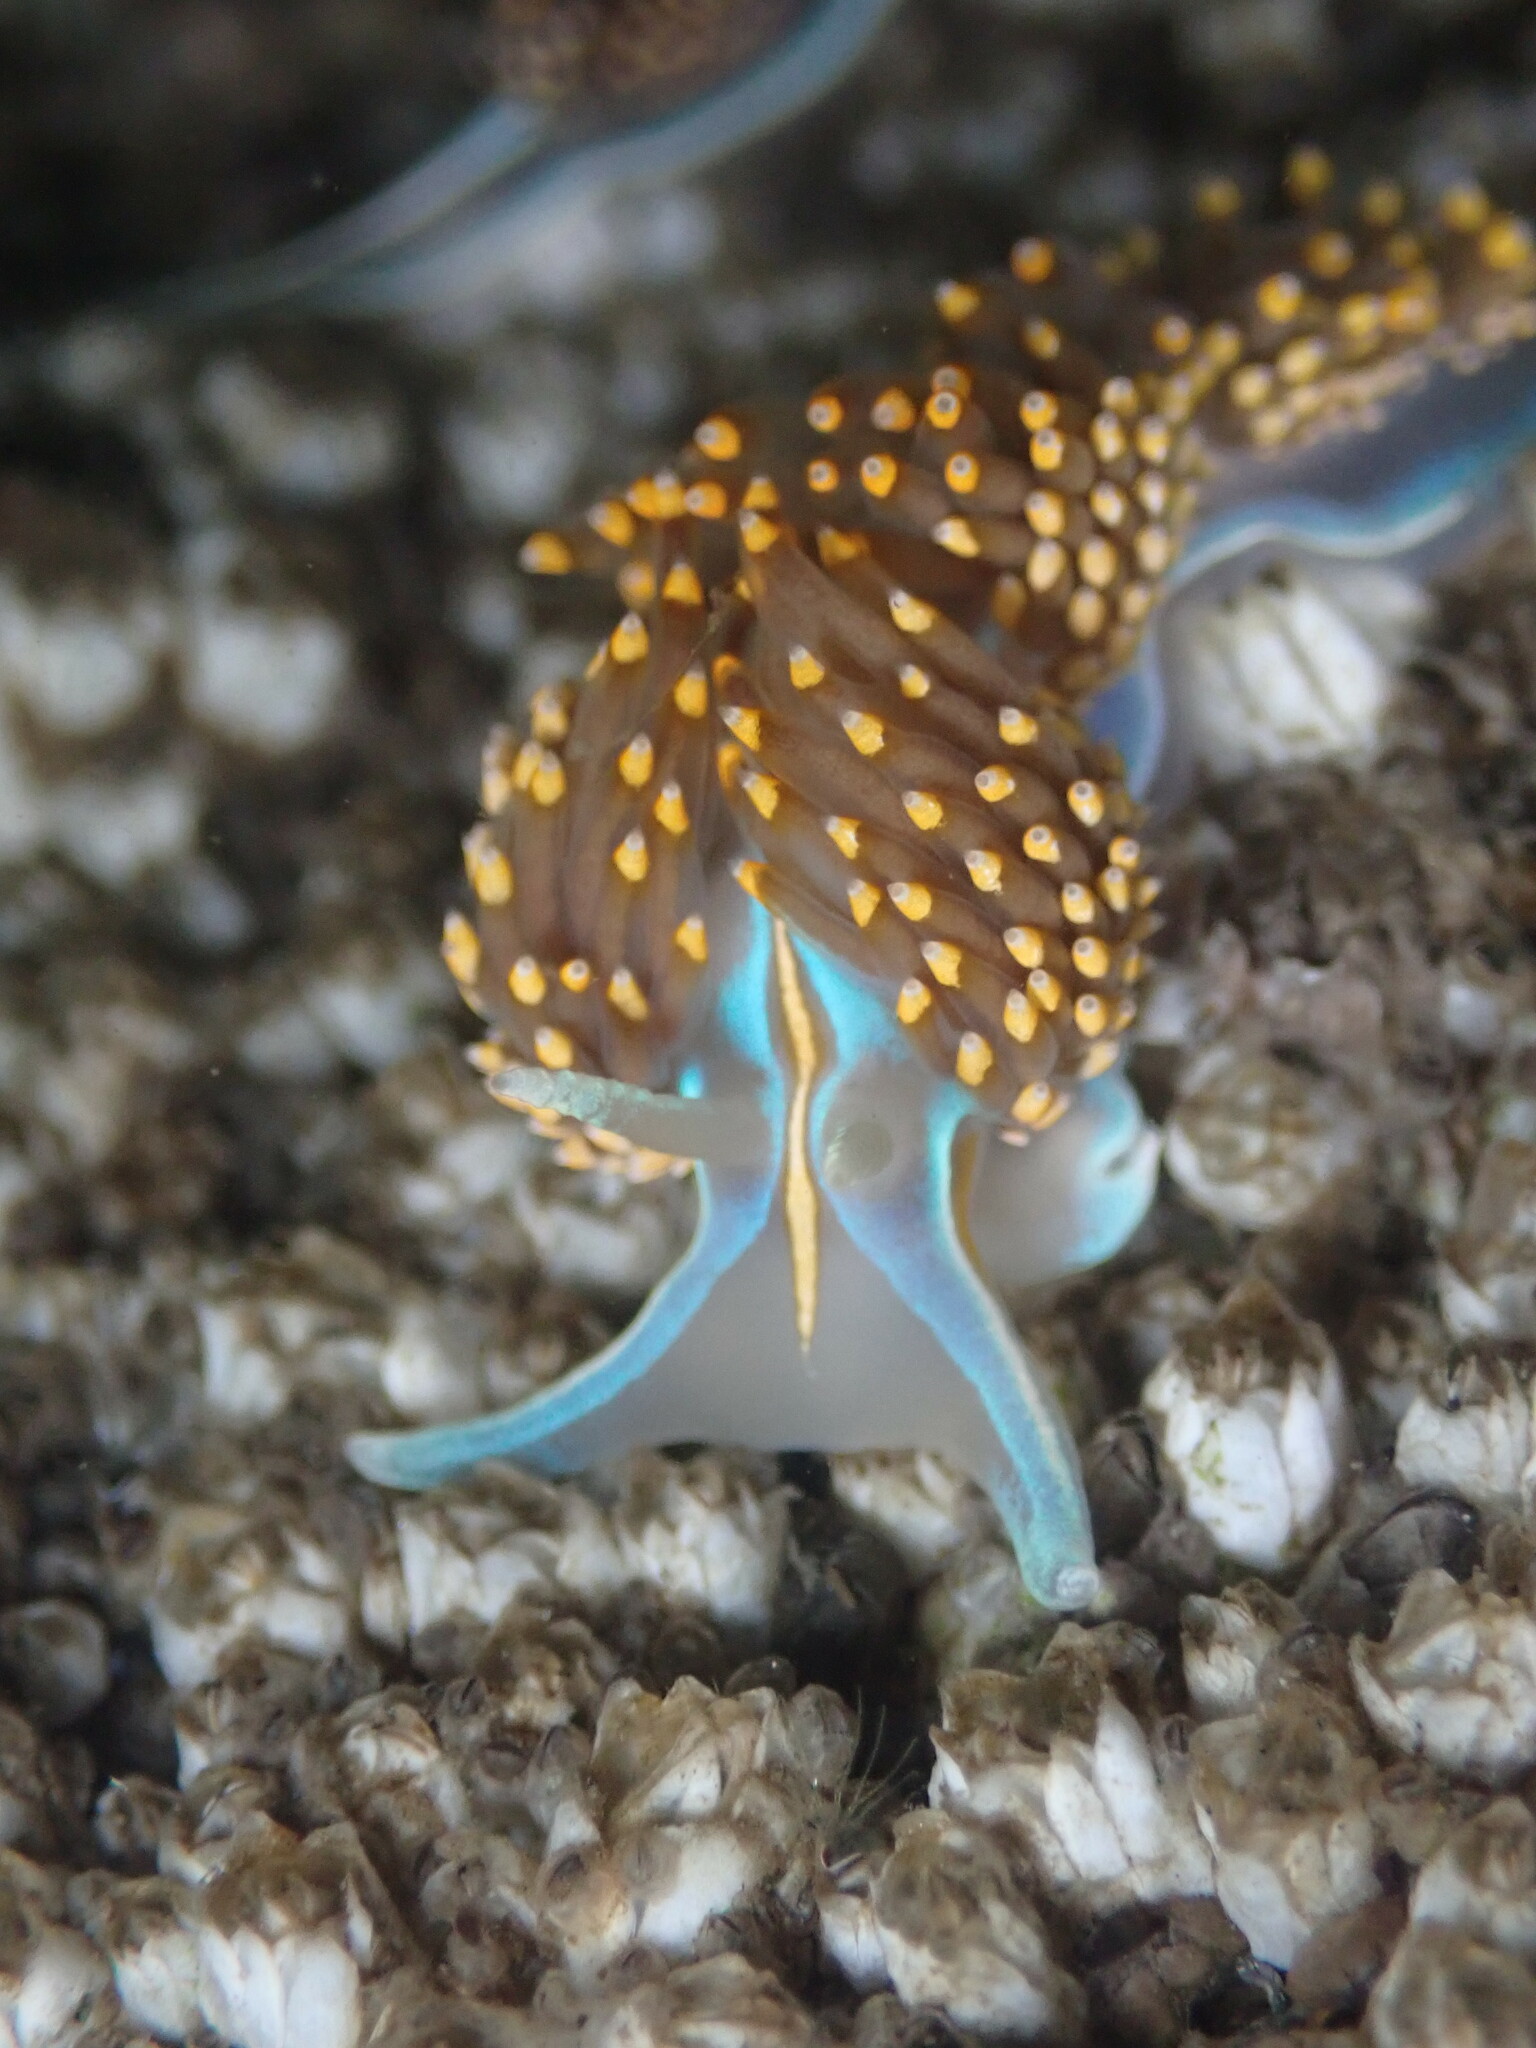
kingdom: Animalia
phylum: Mollusca
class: Gastropoda
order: Nudibranchia
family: Myrrhinidae
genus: Hermissenda
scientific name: Hermissenda opalescens
